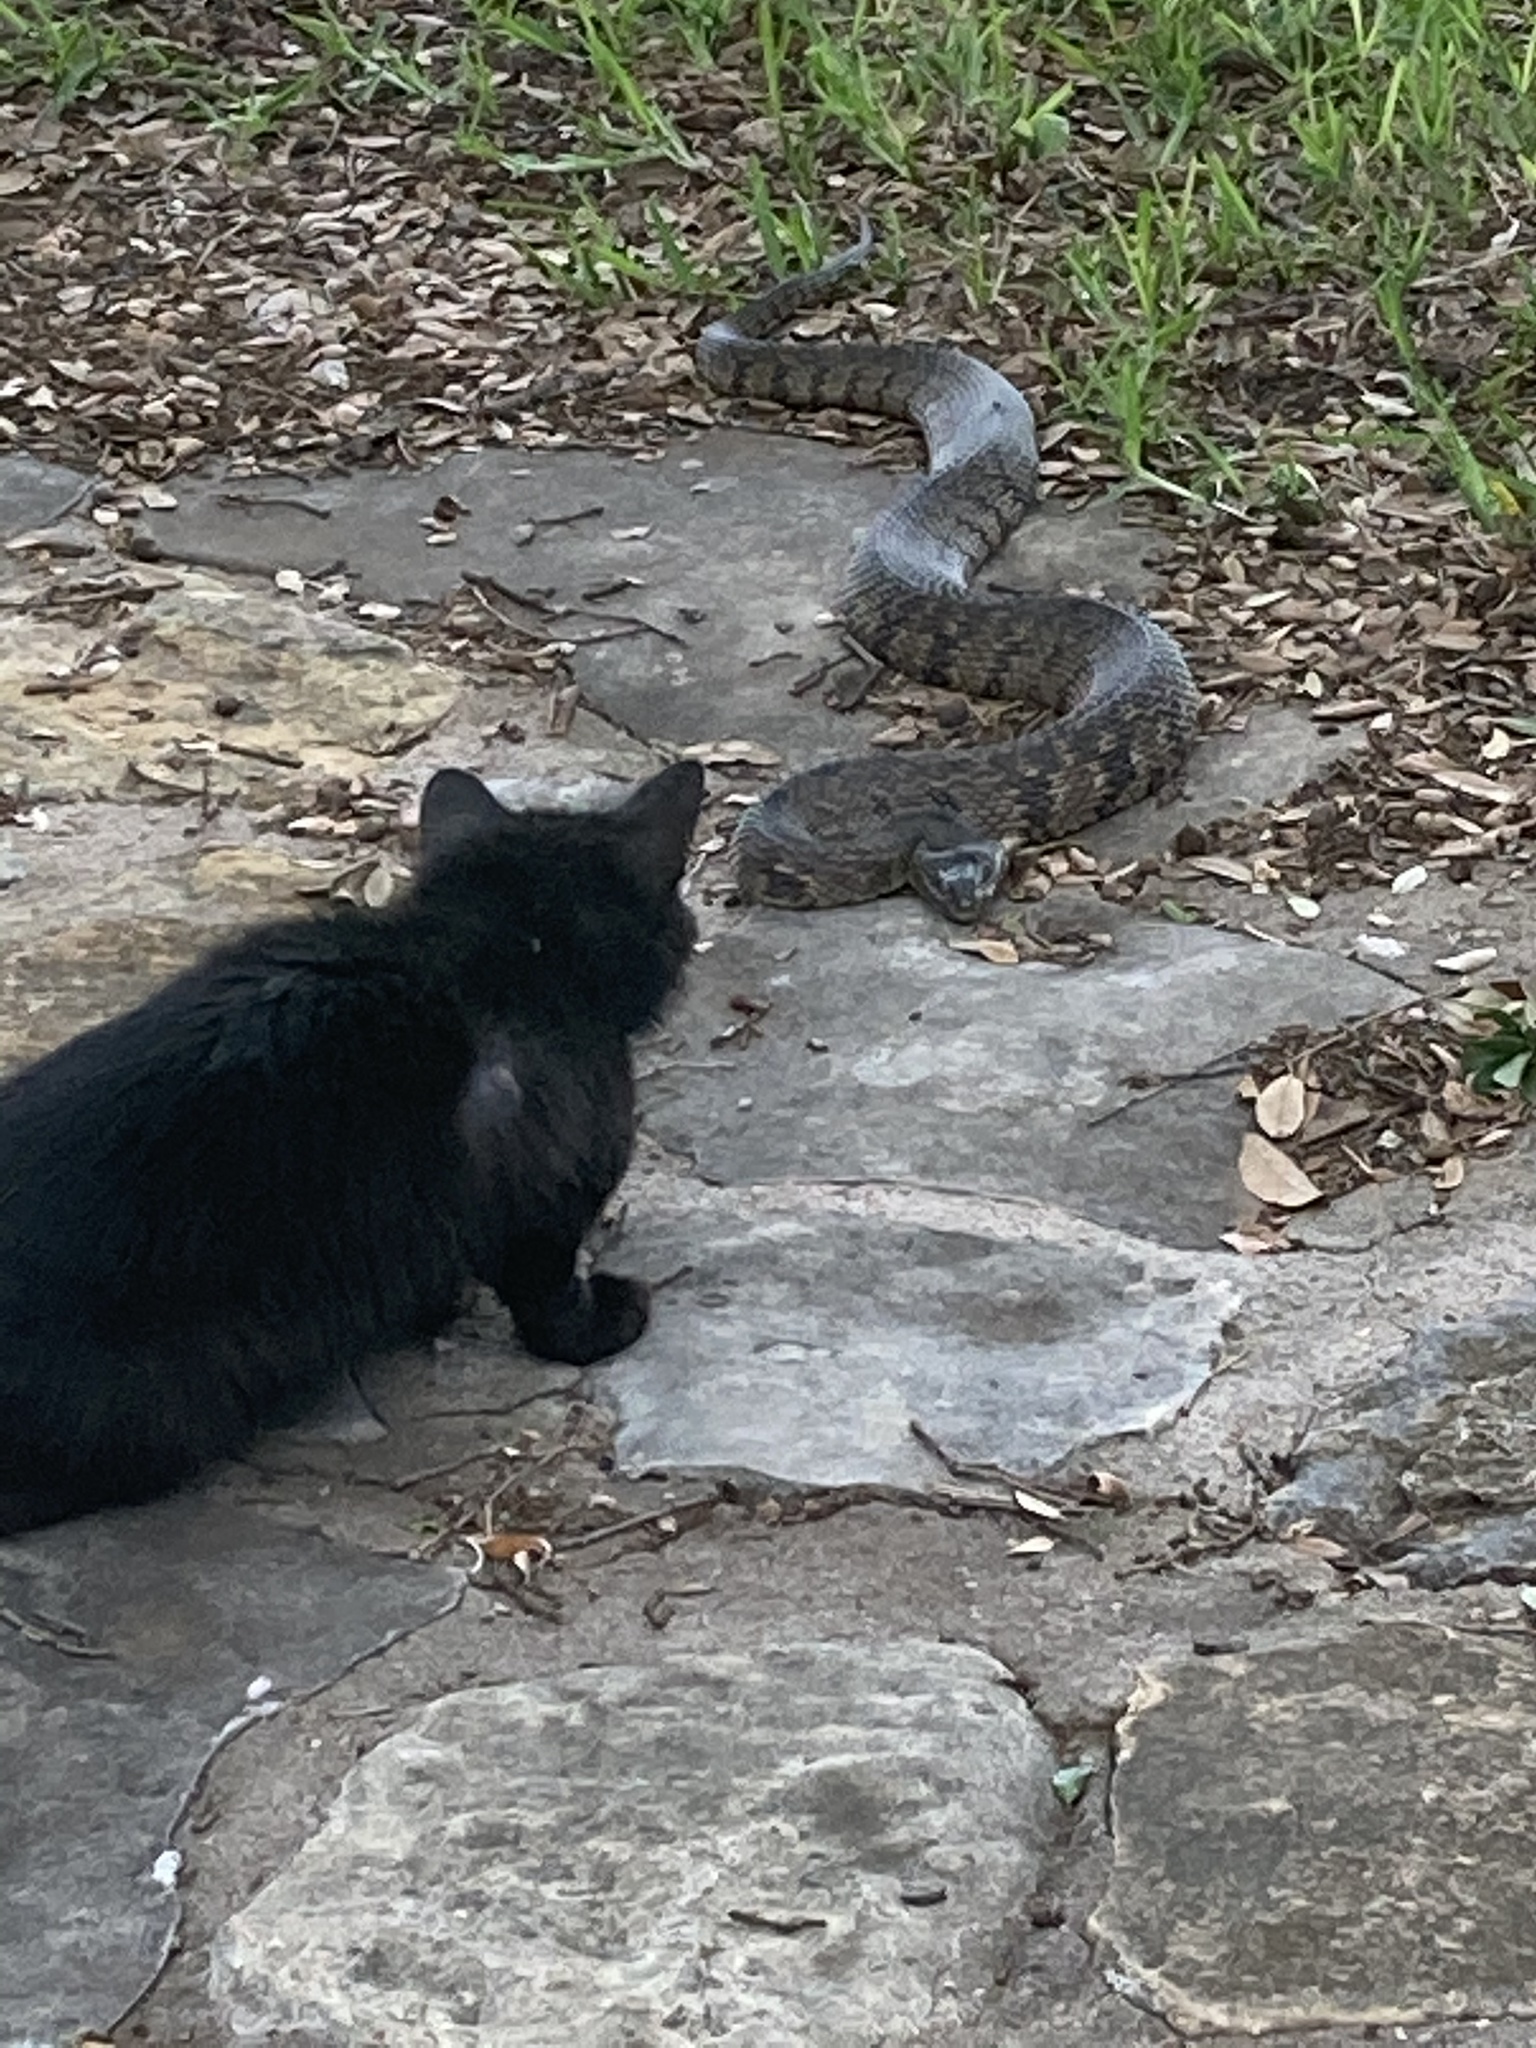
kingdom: Animalia
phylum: Chordata
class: Squamata
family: Colubridae
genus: Nerodia
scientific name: Nerodia rhombifer
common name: Diamondback water snake
